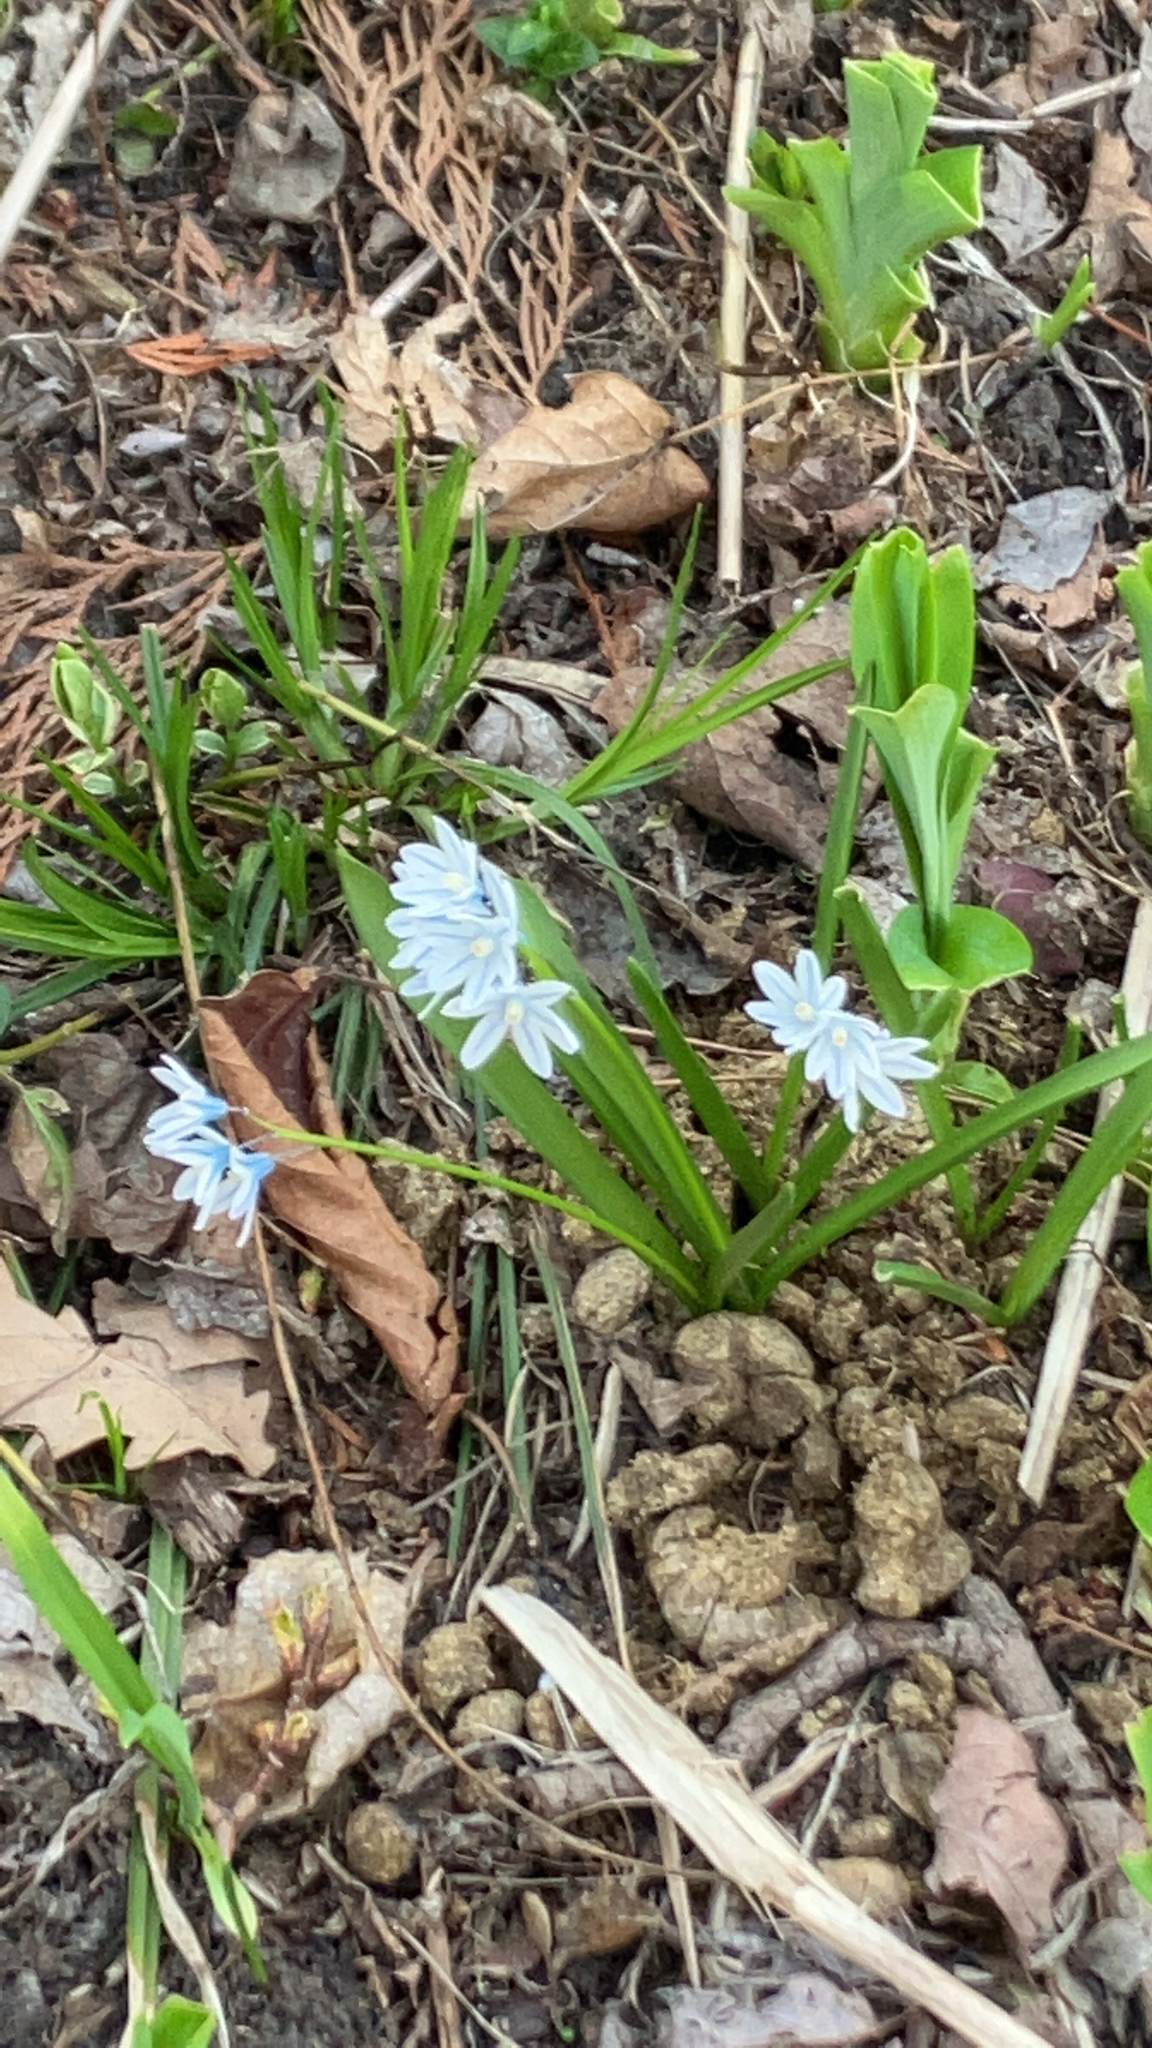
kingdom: Plantae
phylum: Tracheophyta
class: Liliopsida
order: Asparagales
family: Asparagaceae
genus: Puschkinia
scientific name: Puschkinia scilloides
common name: Striped squill
